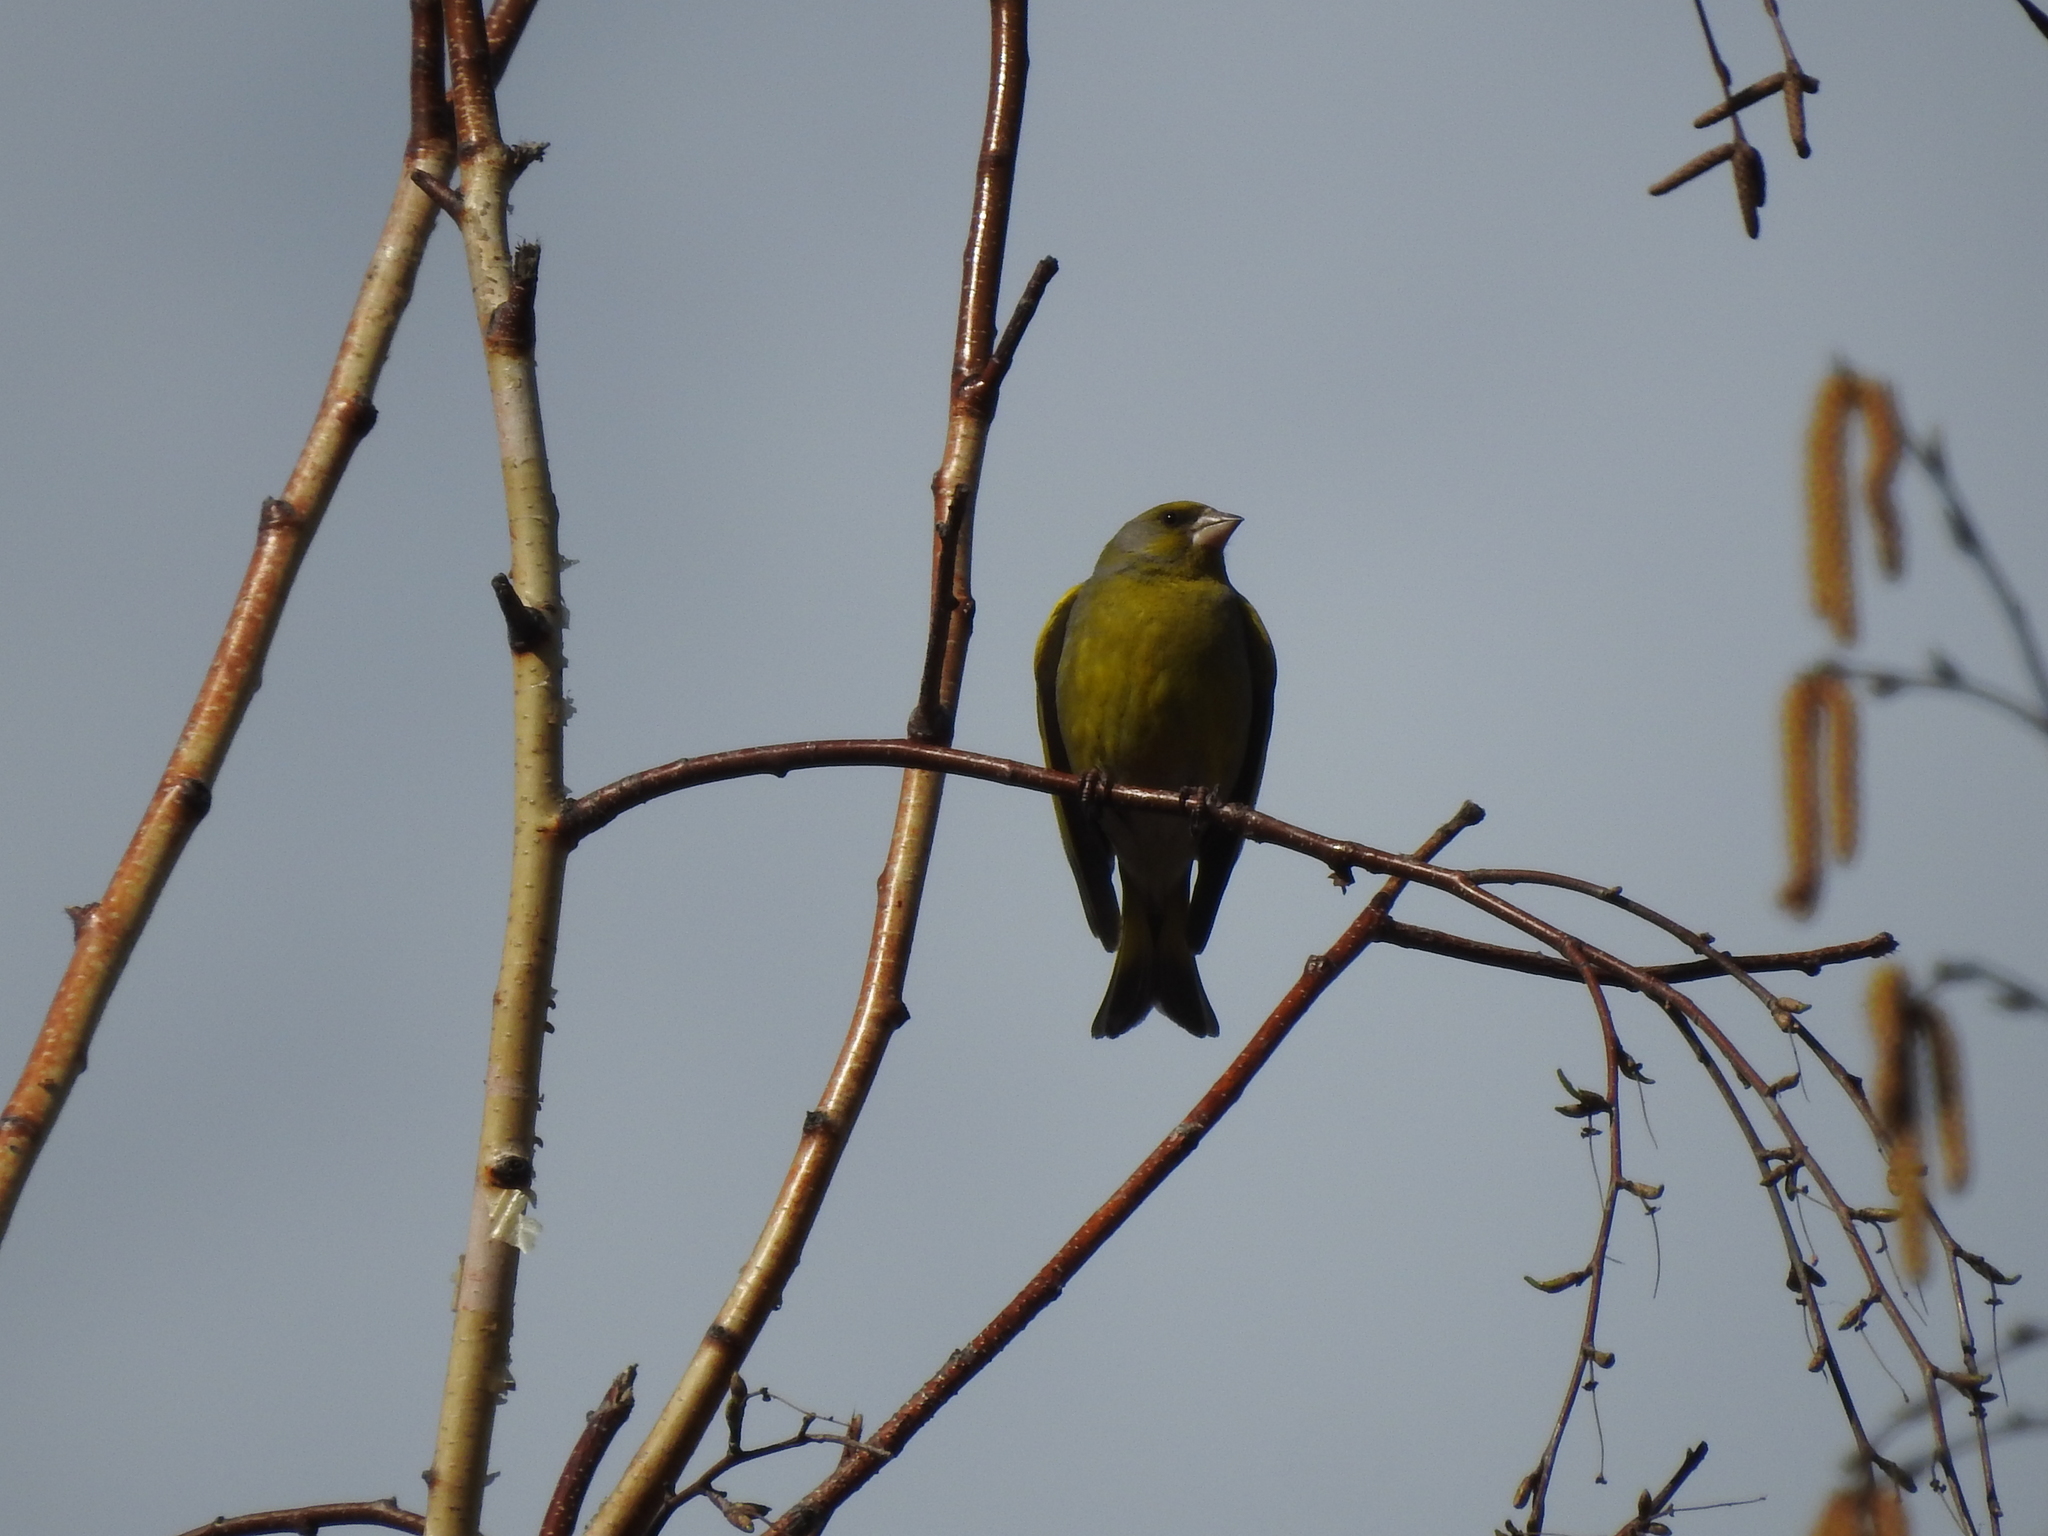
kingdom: Plantae
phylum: Tracheophyta
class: Liliopsida
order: Poales
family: Poaceae
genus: Chloris
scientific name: Chloris chloris
